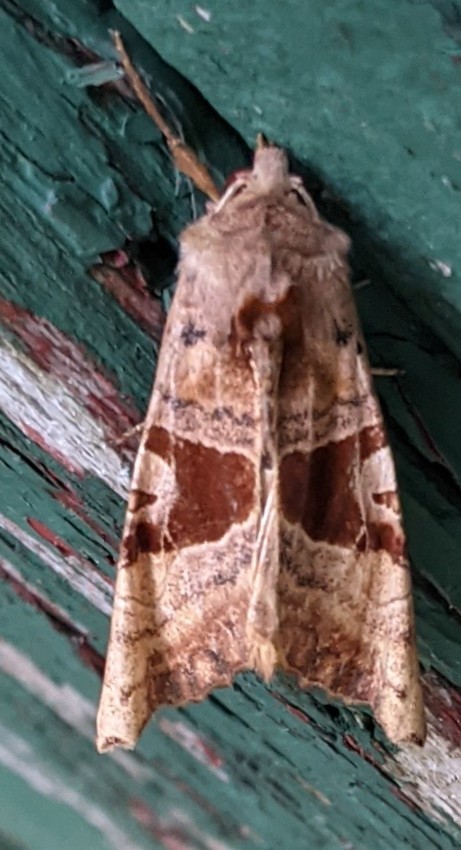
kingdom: Animalia
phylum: Arthropoda
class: Insecta
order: Lepidoptera
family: Noctuidae
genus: Phlogophora
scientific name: Phlogophora periculosa
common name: Brown angle shades
